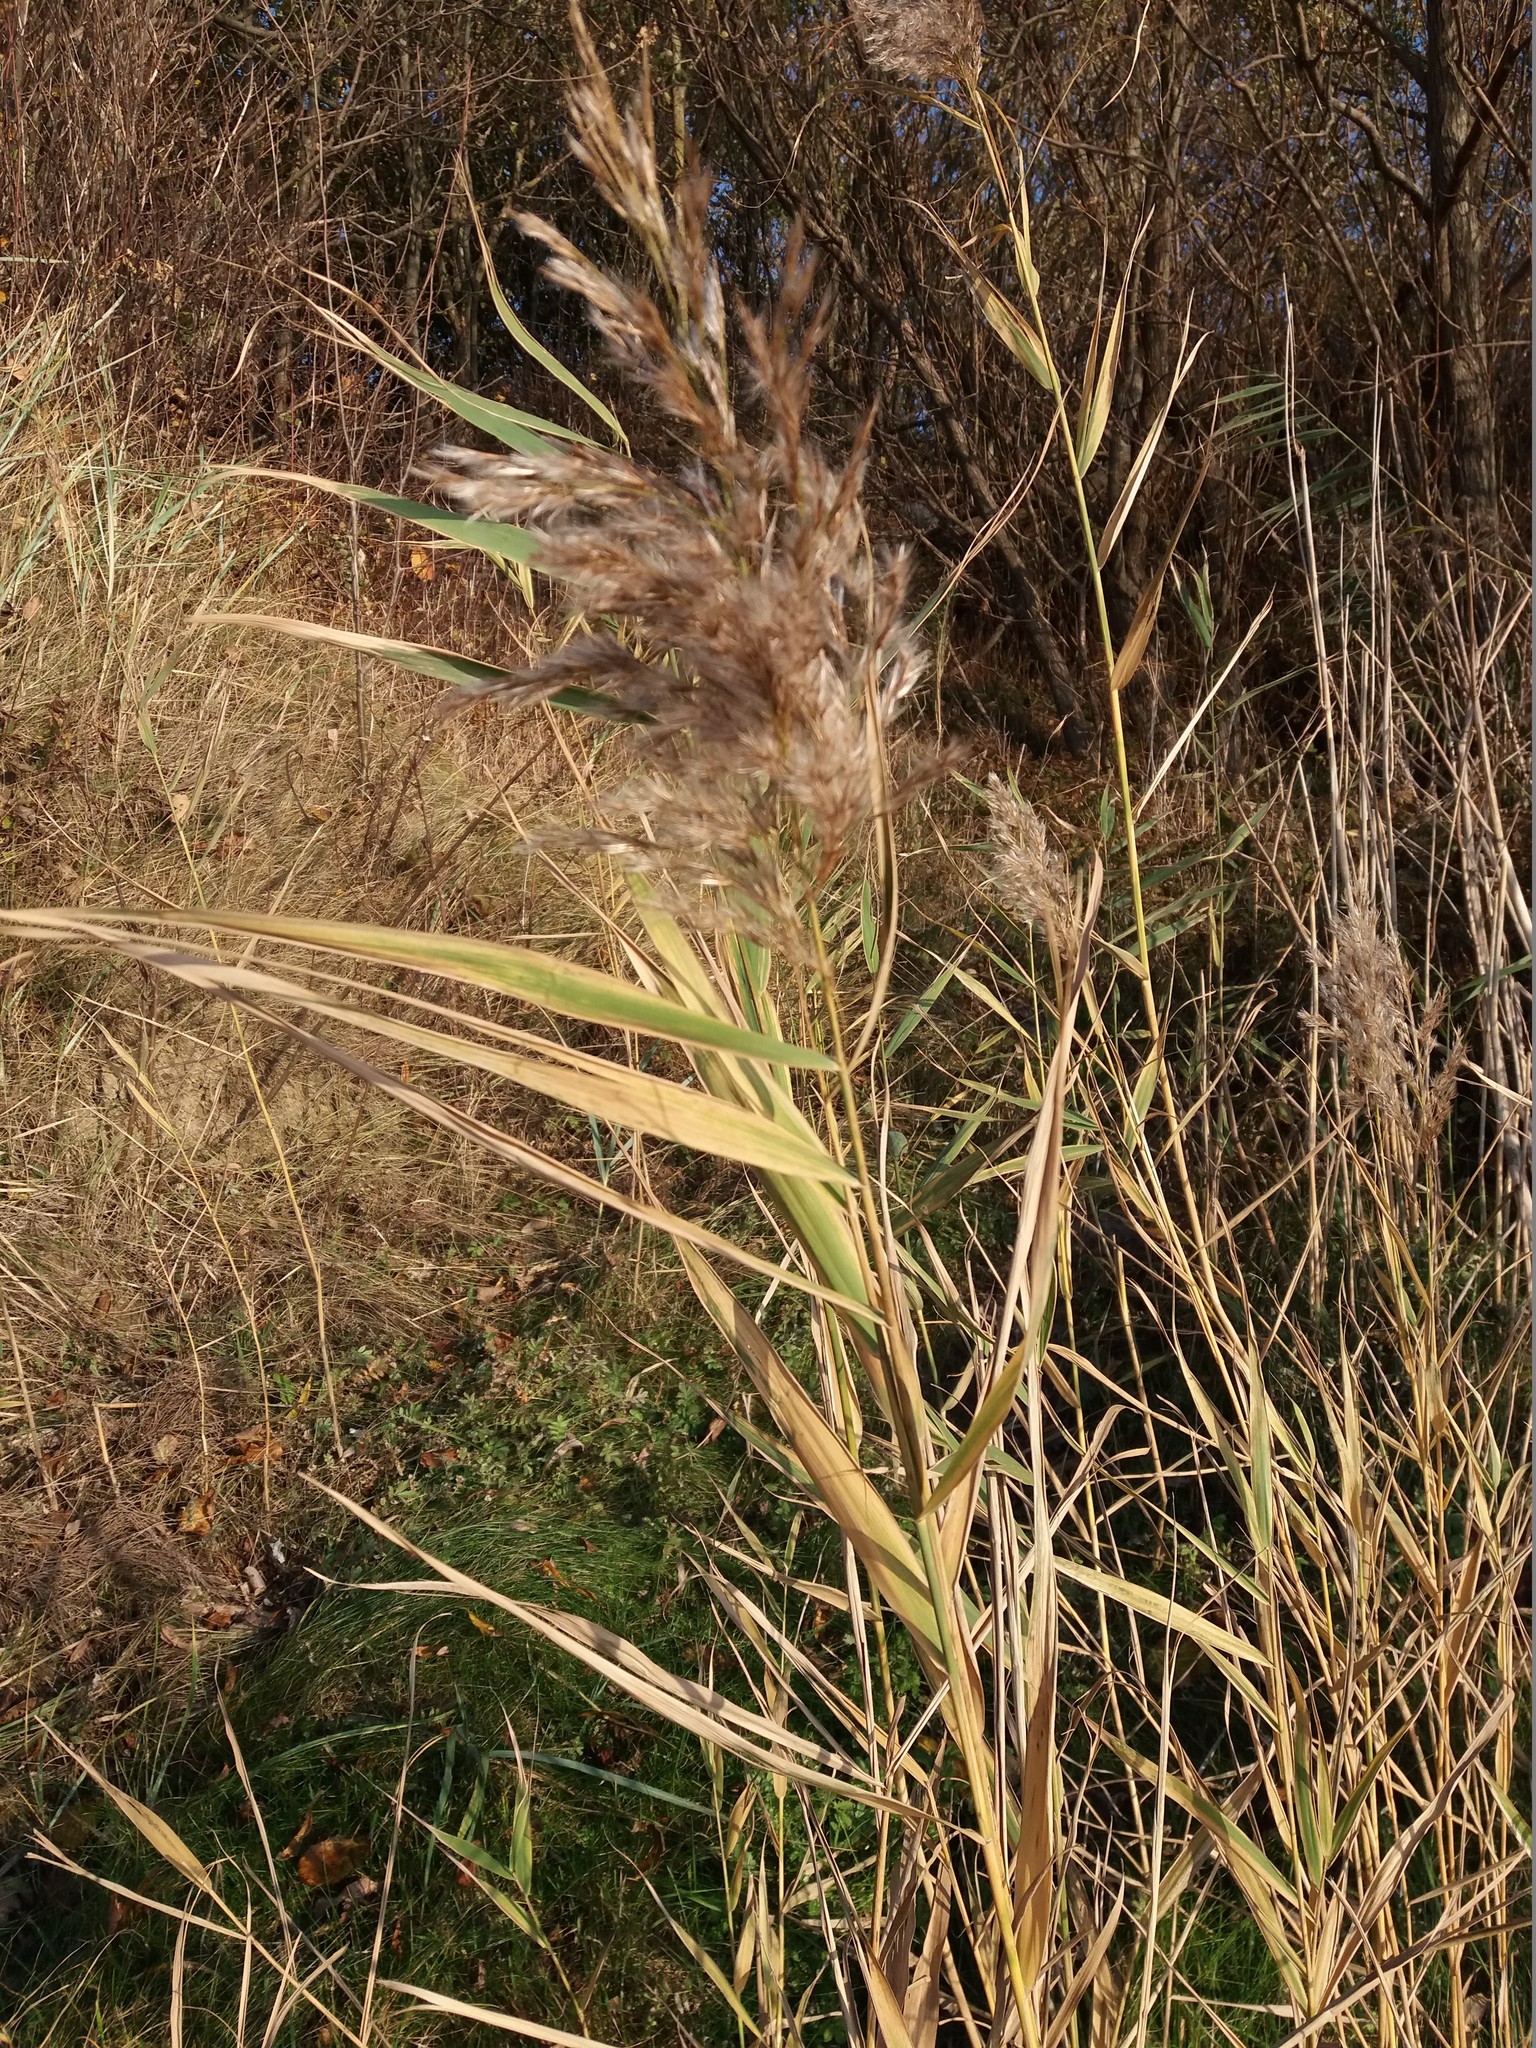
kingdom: Plantae
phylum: Tracheophyta
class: Liliopsida
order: Poales
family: Poaceae
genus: Phragmites
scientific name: Phragmites australis
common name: Common reed
